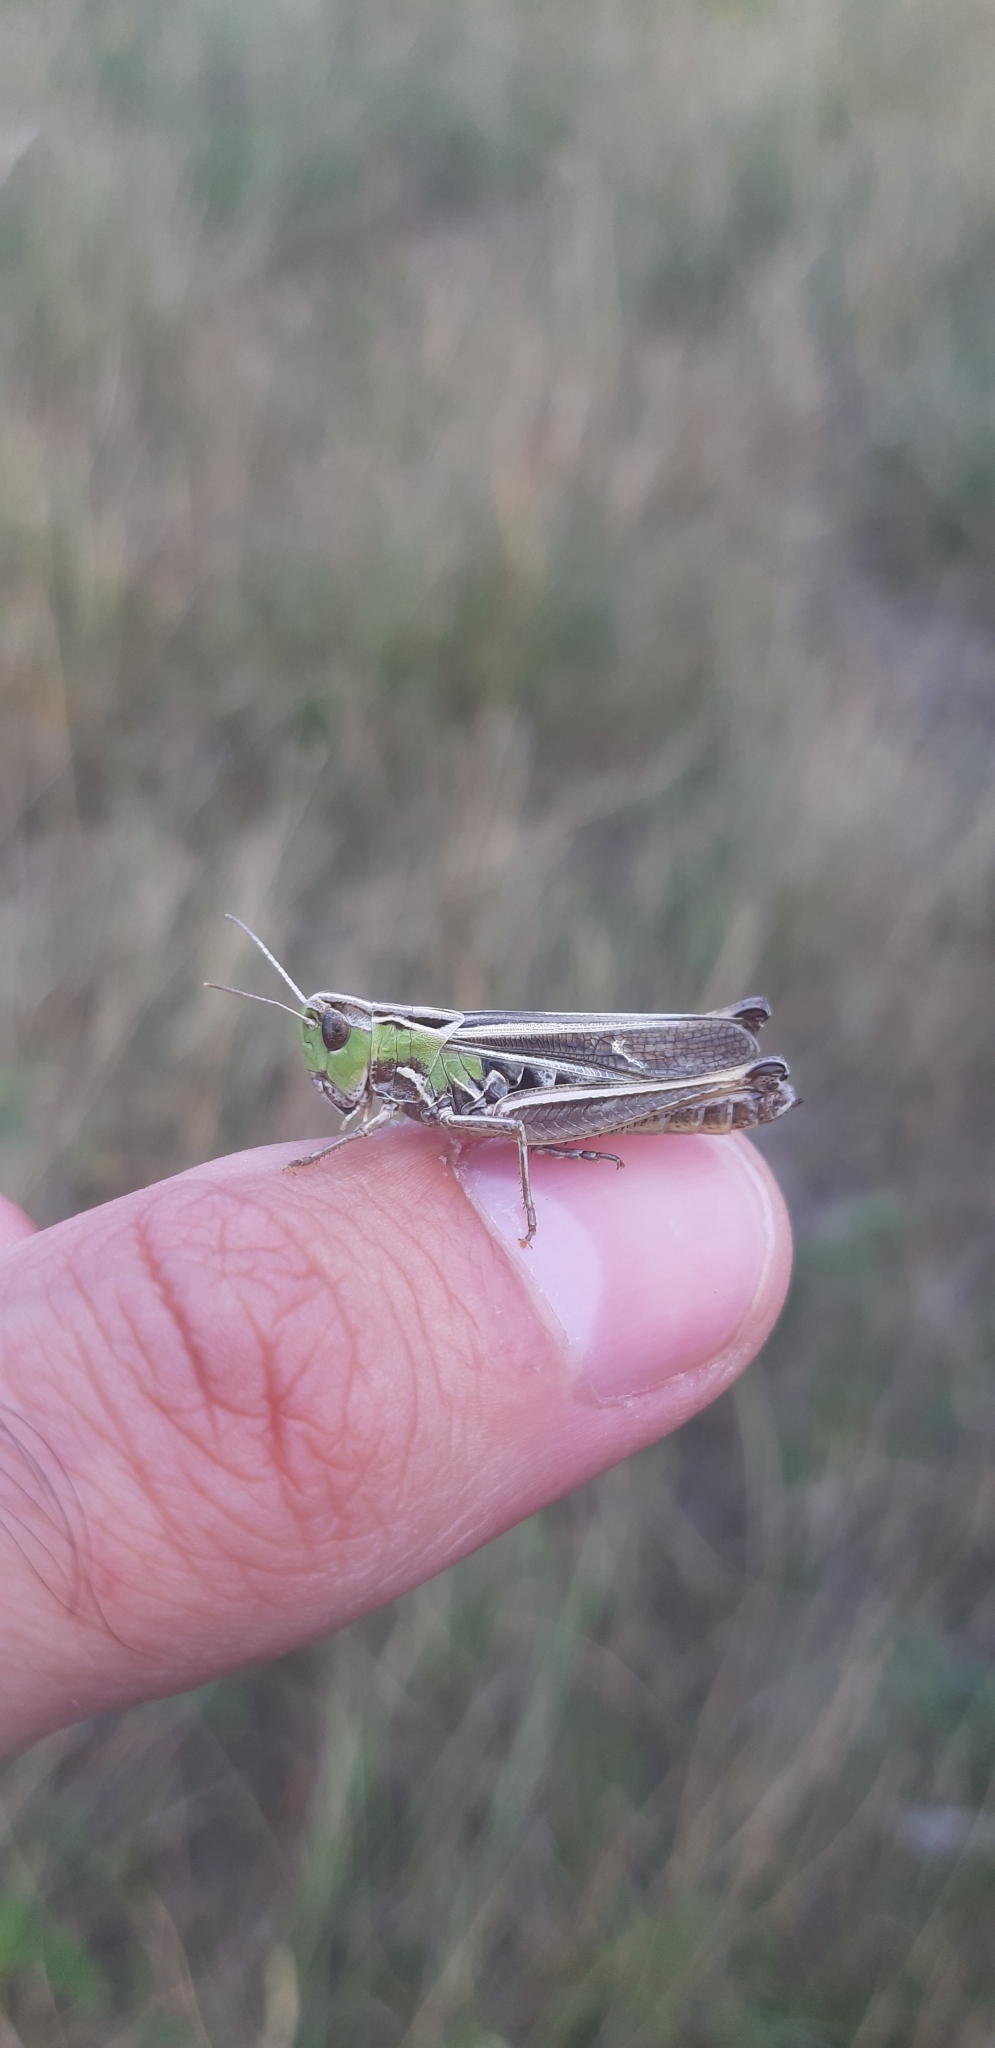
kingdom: Animalia
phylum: Arthropoda
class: Insecta
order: Orthoptera
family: Acrididae
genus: Stenobothrus
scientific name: Stenobothrus lineatus
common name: Stripe-winged grasshopper
